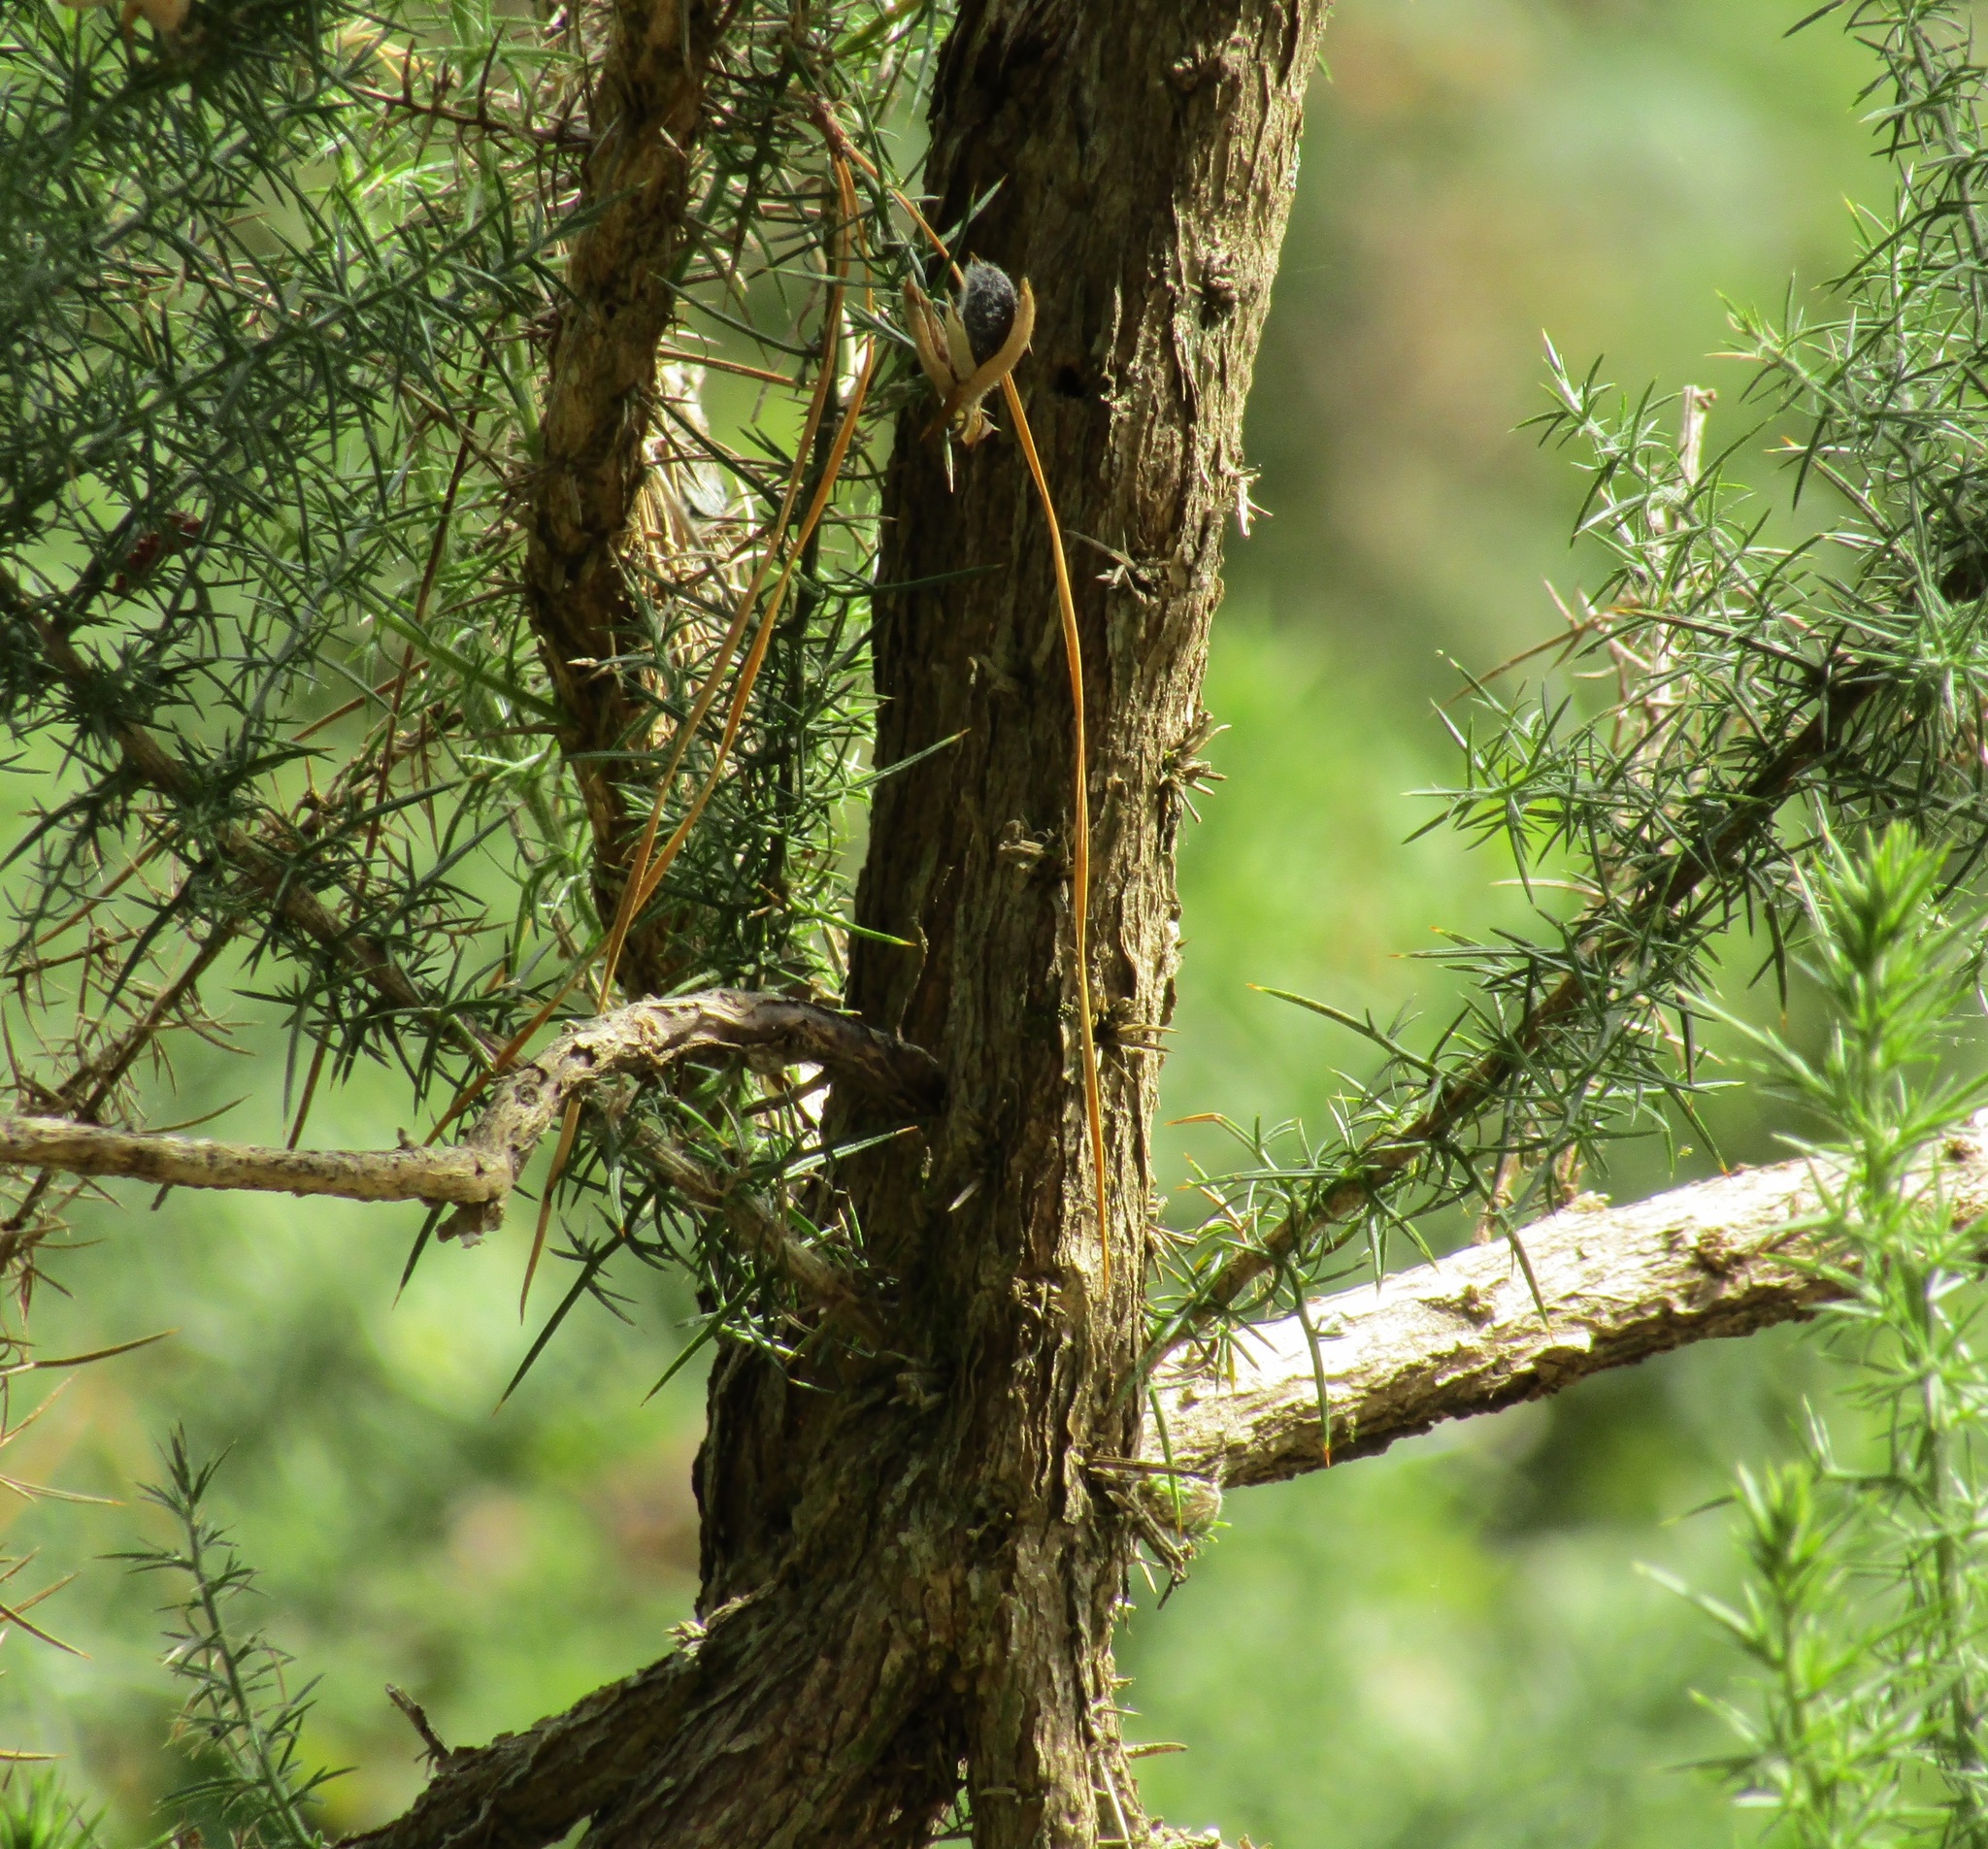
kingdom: Plantae
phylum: Tracheophyta
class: Magnoliopsida
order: Fabales
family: Fabaceae
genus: Ulex
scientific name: Ulex europaeus
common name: Common gorse
